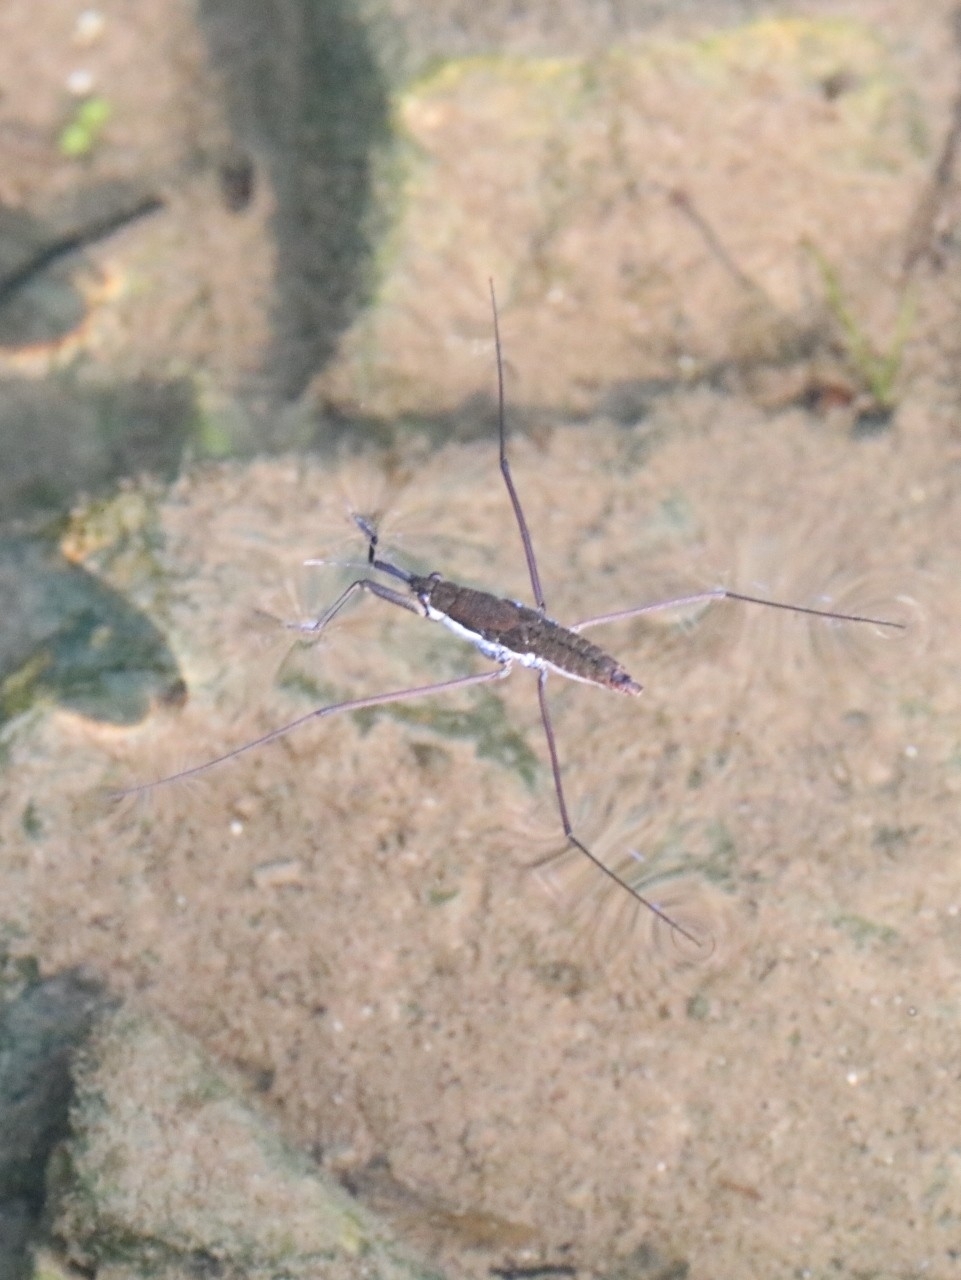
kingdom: Animalia
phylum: Arthropoda
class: Insecta
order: Hemiptera
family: Gerridae
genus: Aquarius
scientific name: Aquarius remigis
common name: Common water strider
